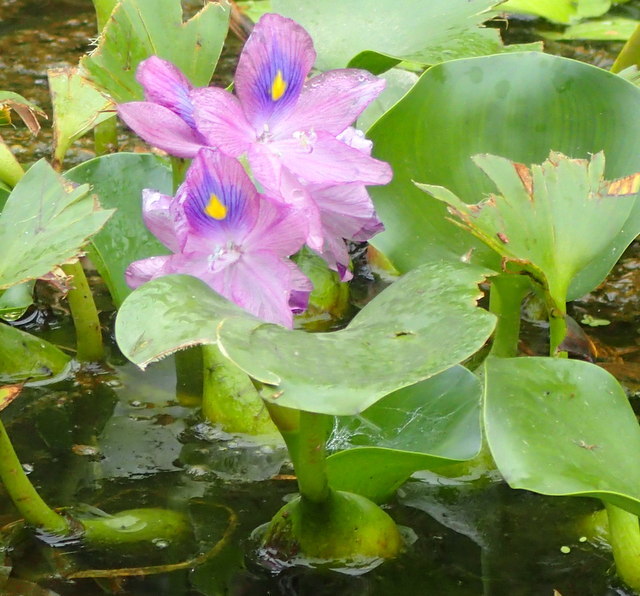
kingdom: Plantae
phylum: Tracheophyta
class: Liliopsida
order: Commelinales
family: Pontederiaceae
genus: Pontederia
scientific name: Pontederia crassipes
